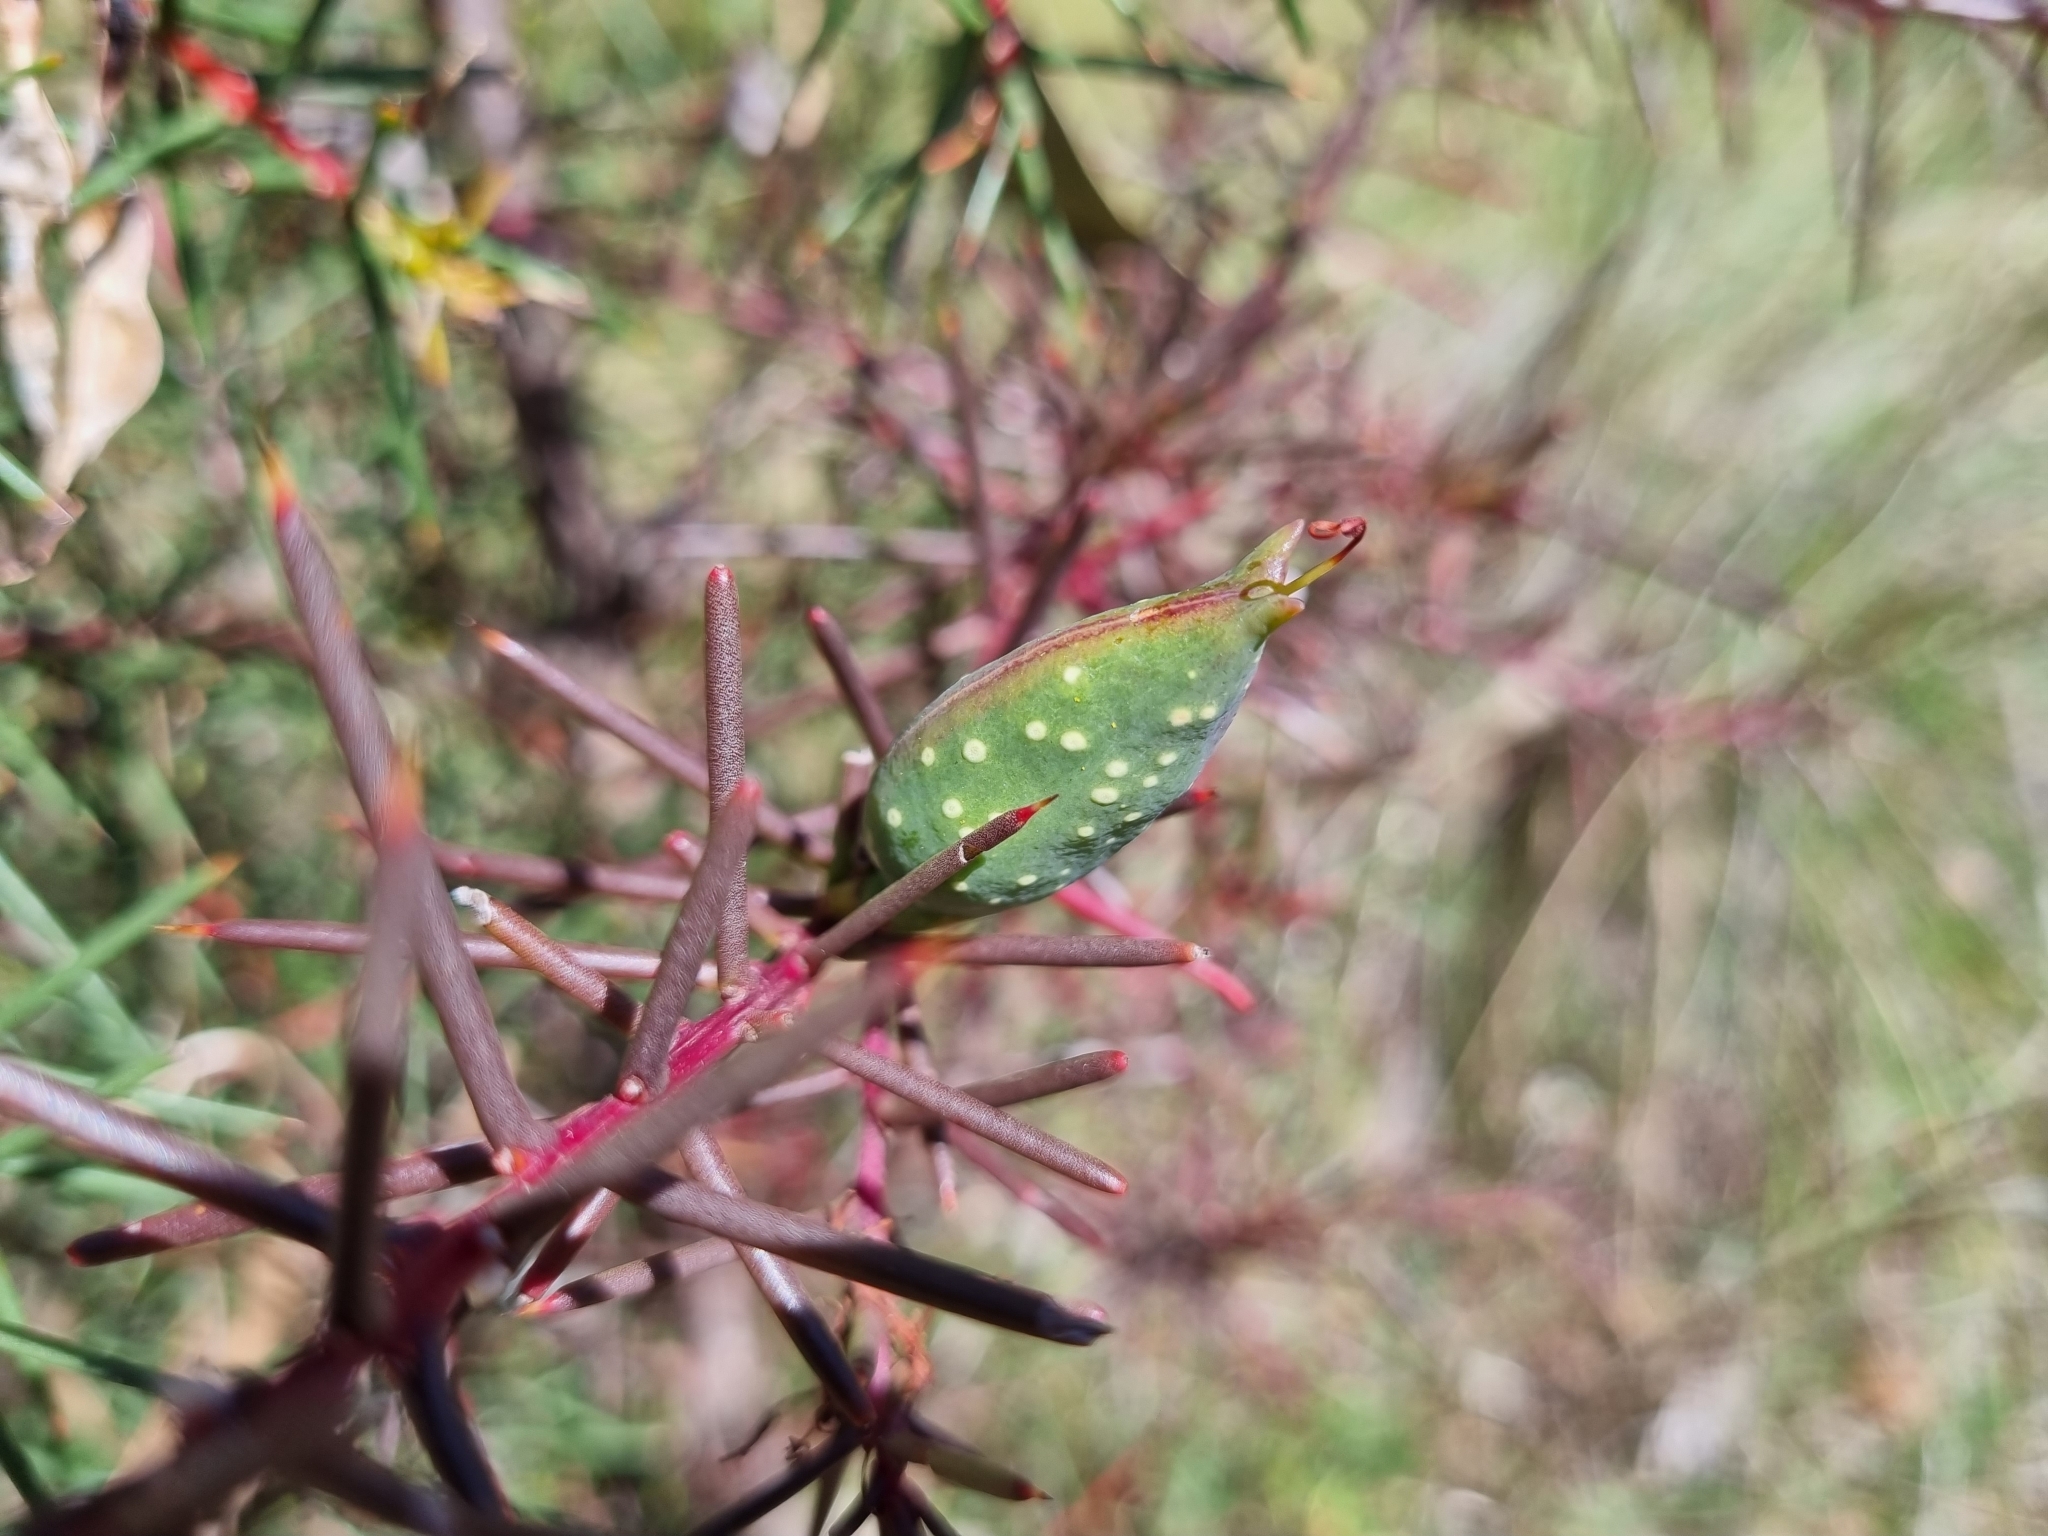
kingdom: Plantae
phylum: Tracheophyta
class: Magnoliopsida
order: Proteales
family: Proteaceae
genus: Hakea
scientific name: Hakea decurrens
